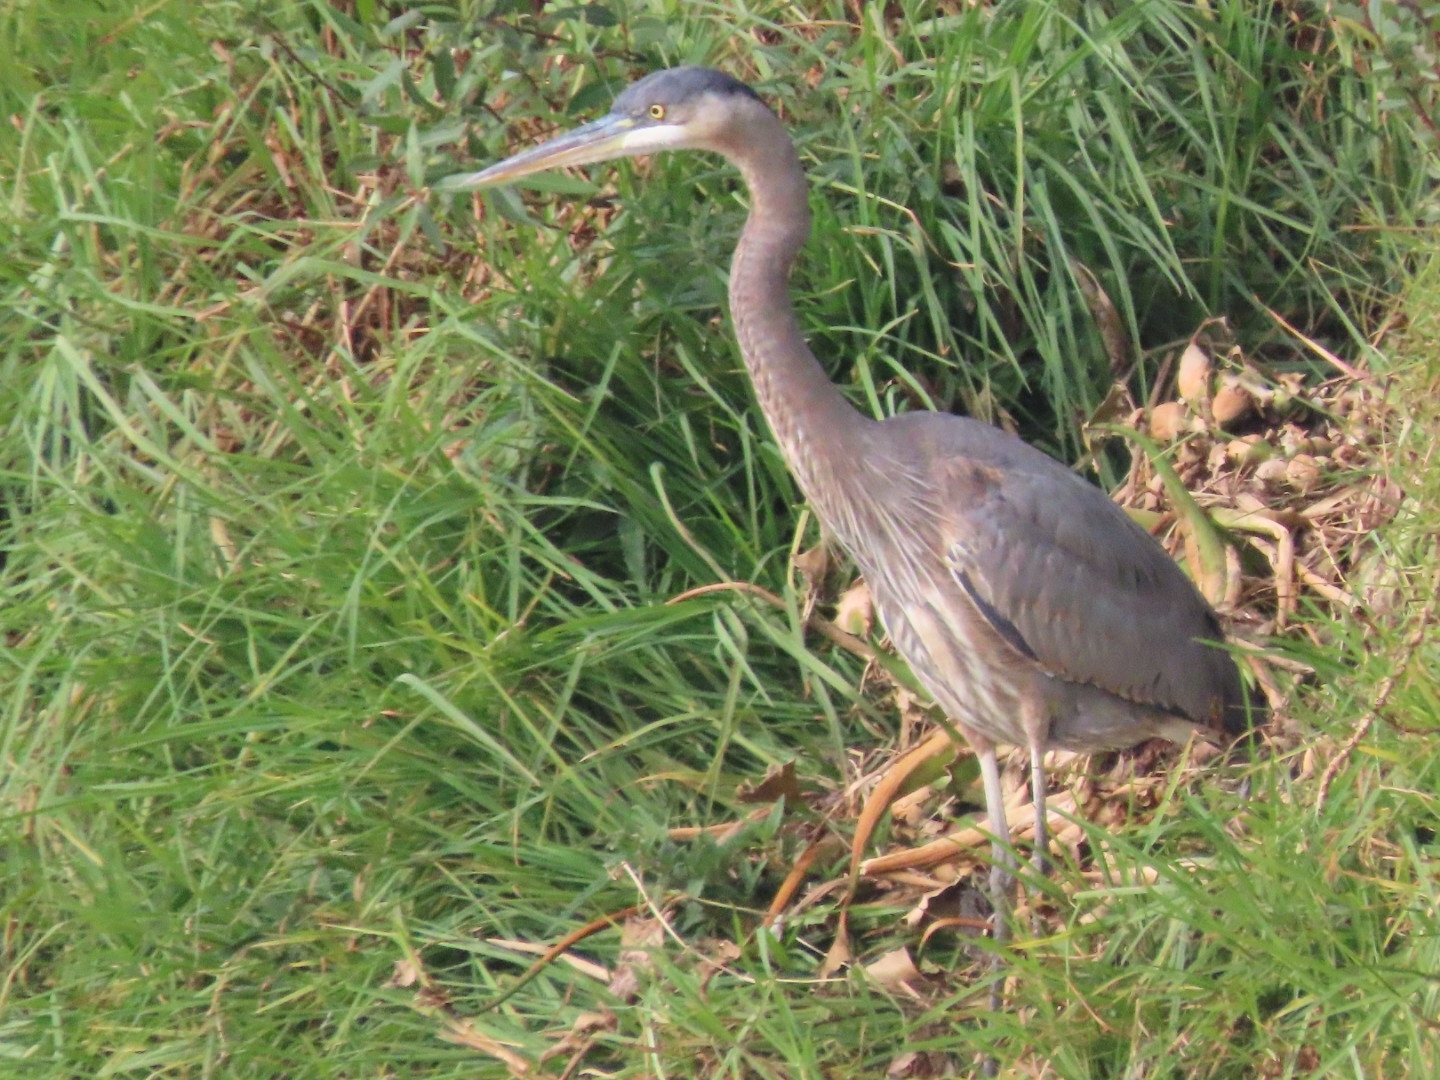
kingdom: Animalia
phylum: Chordata
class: Aves
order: Pelecaniformes
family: Ardeidae
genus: Ardea
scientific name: Ardea herodias
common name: Great blue heron
